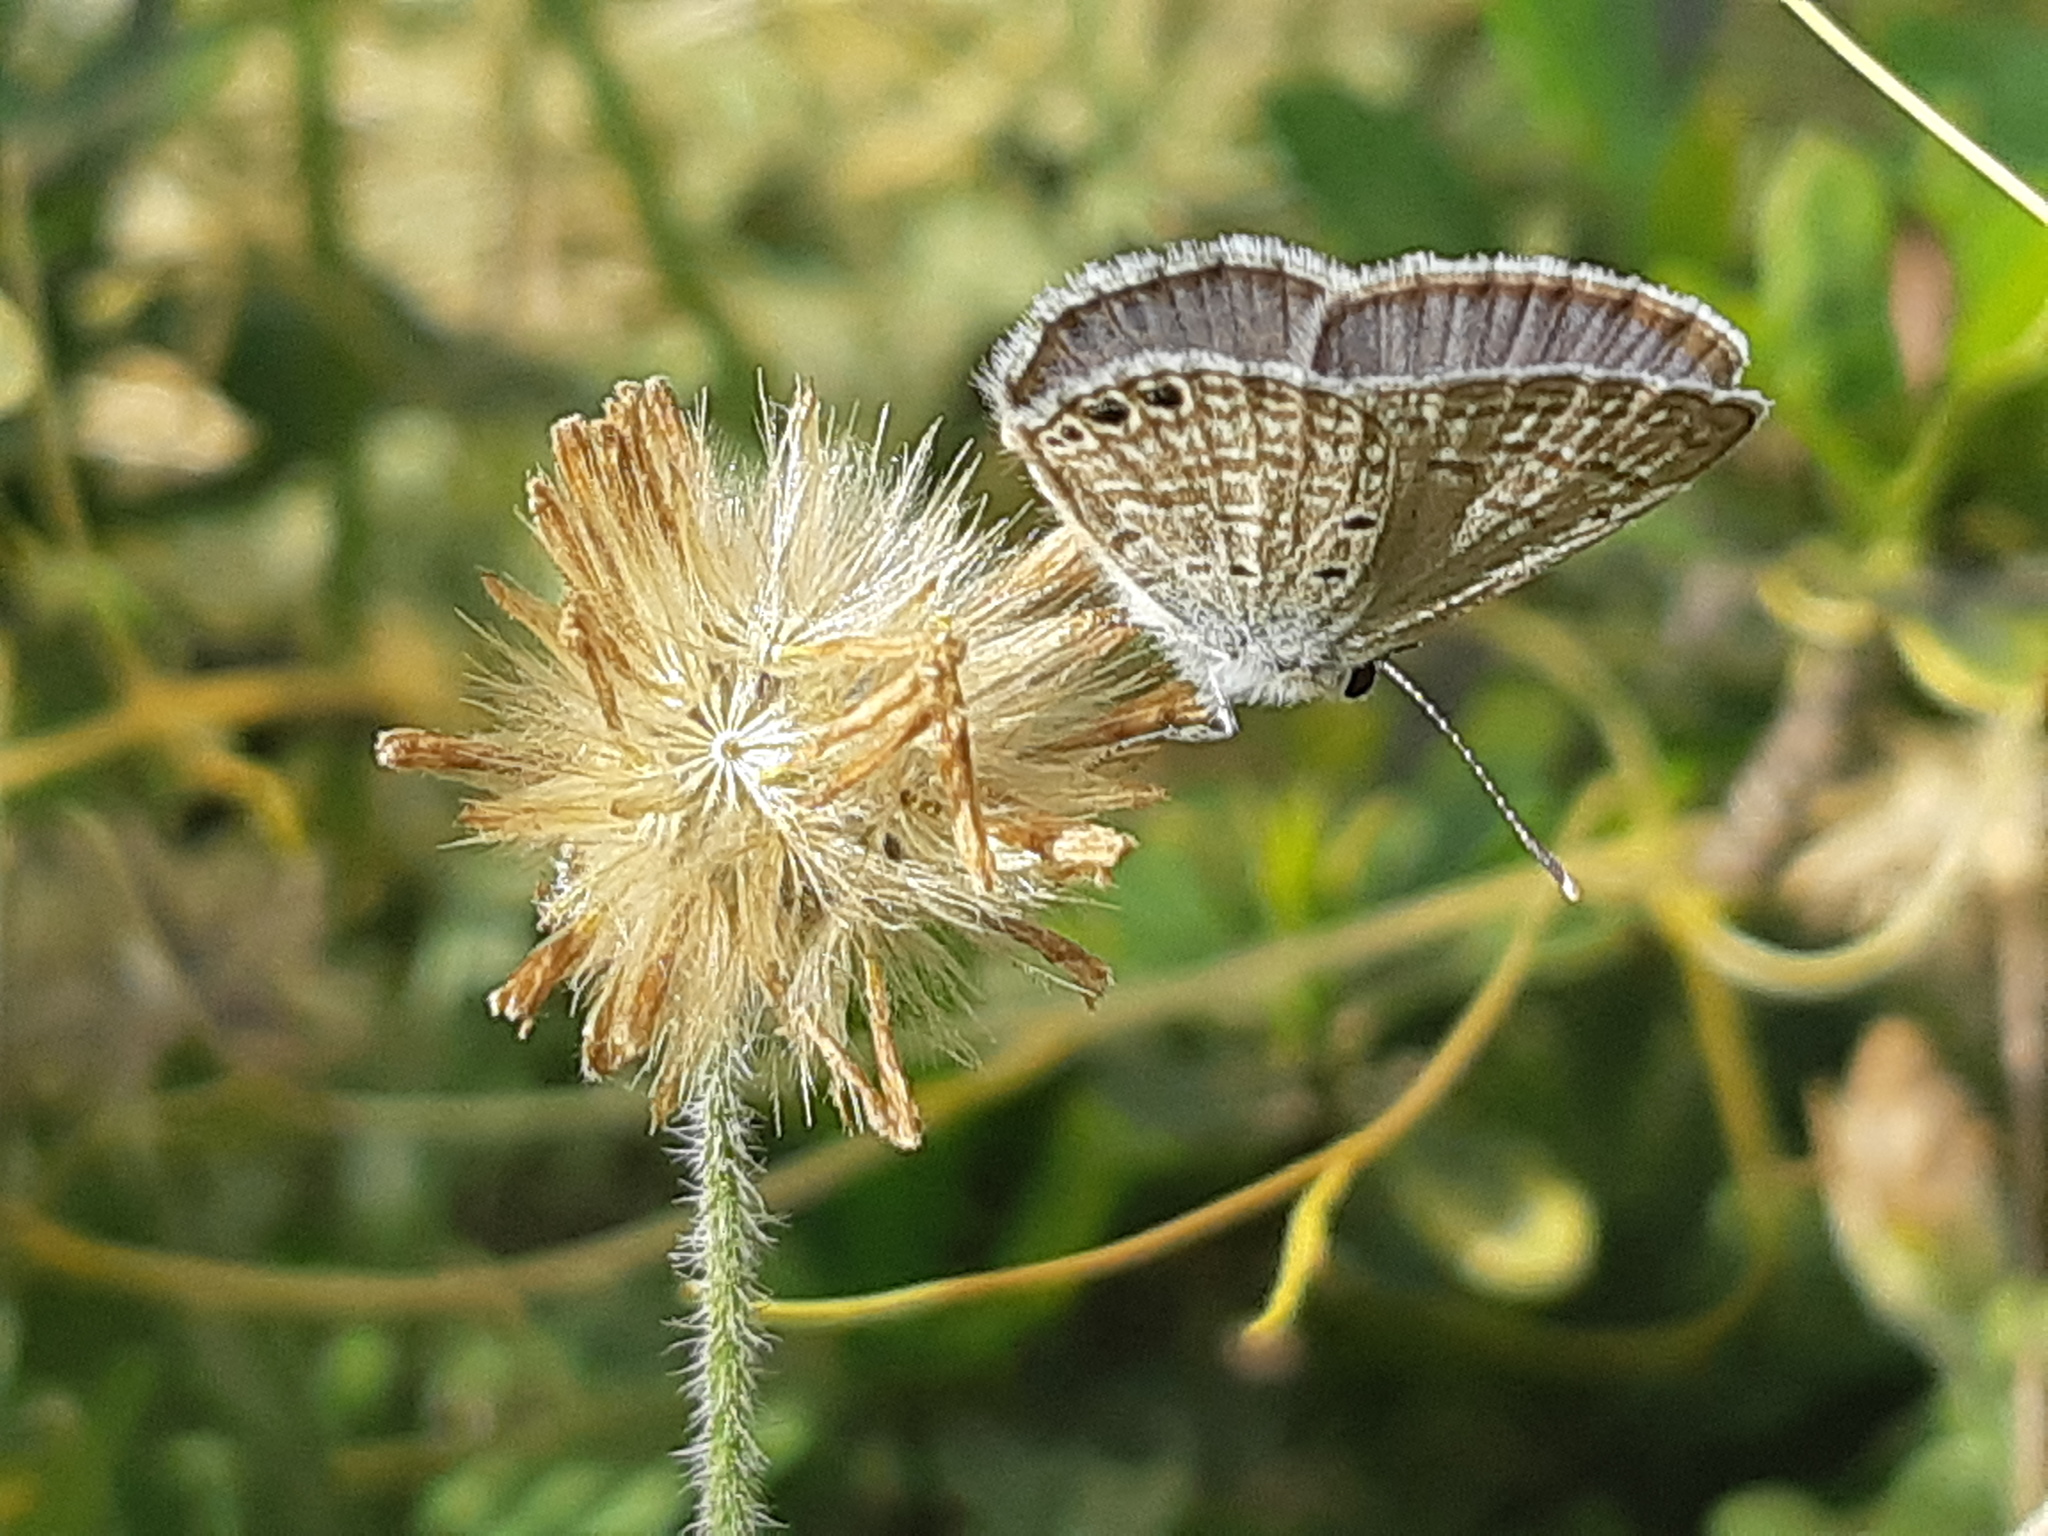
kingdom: Animalia
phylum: Arthropoda
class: Insecta
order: Lepidoptera
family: Lycaenidae
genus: Hemiargus
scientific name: Hemiargus ramon
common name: Ramon blue
